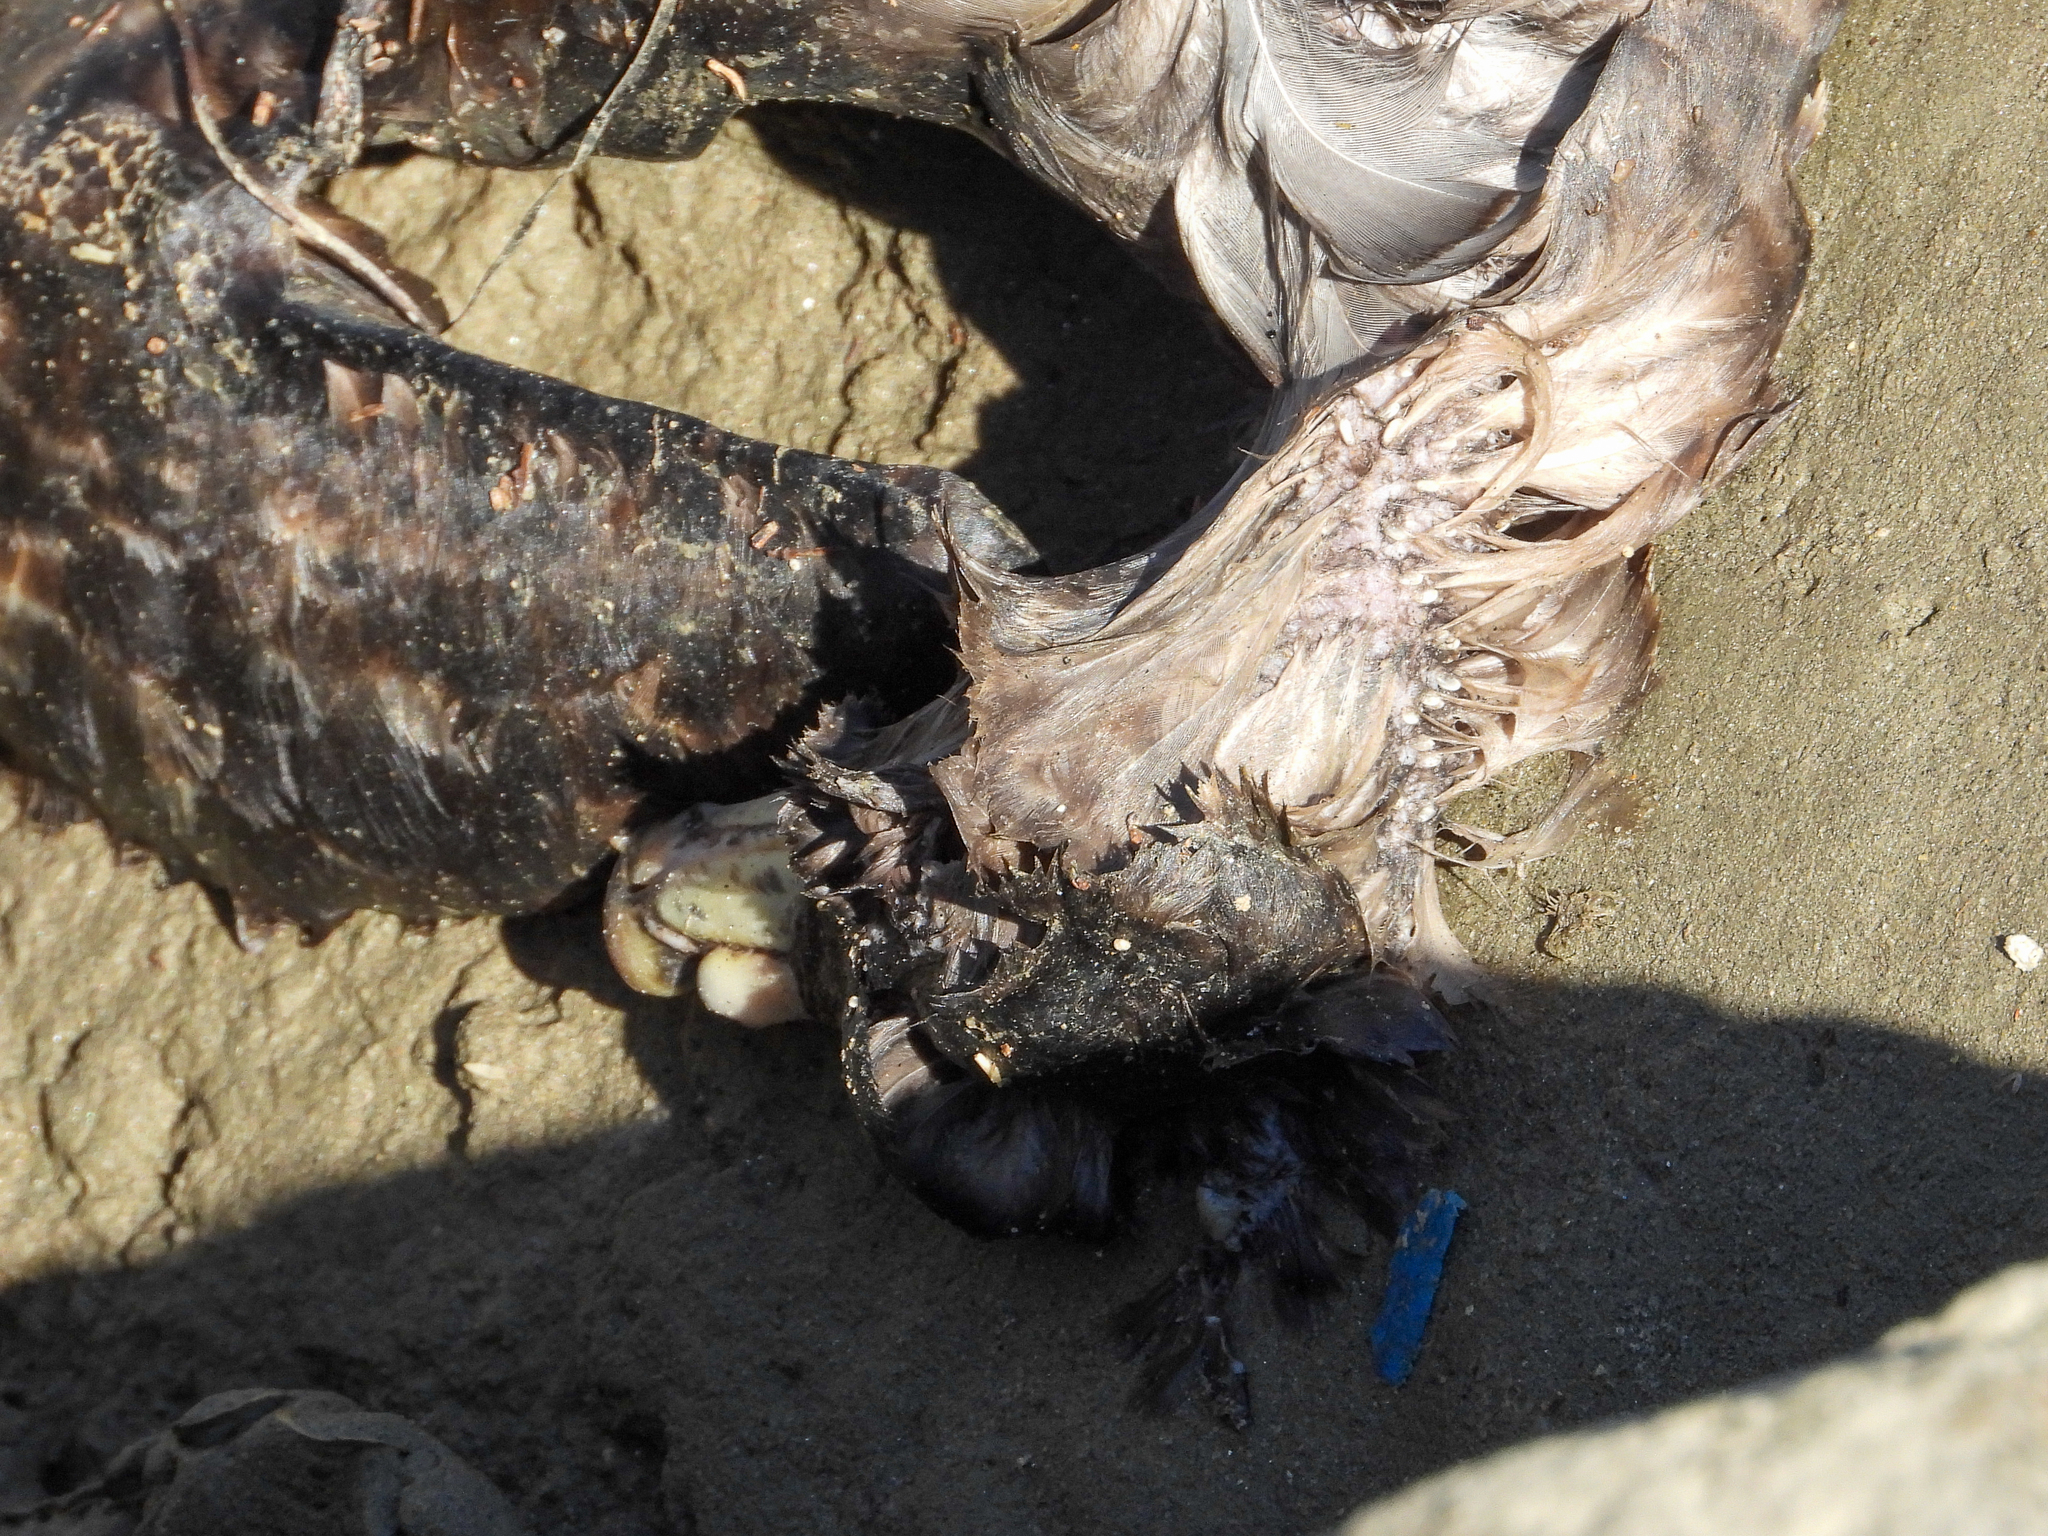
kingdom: Animalia
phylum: Chordata
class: Aves
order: Procellariiformes
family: Procellariidae
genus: Fulmarus
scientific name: Fulmarus glacialis
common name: Northern fulmar
